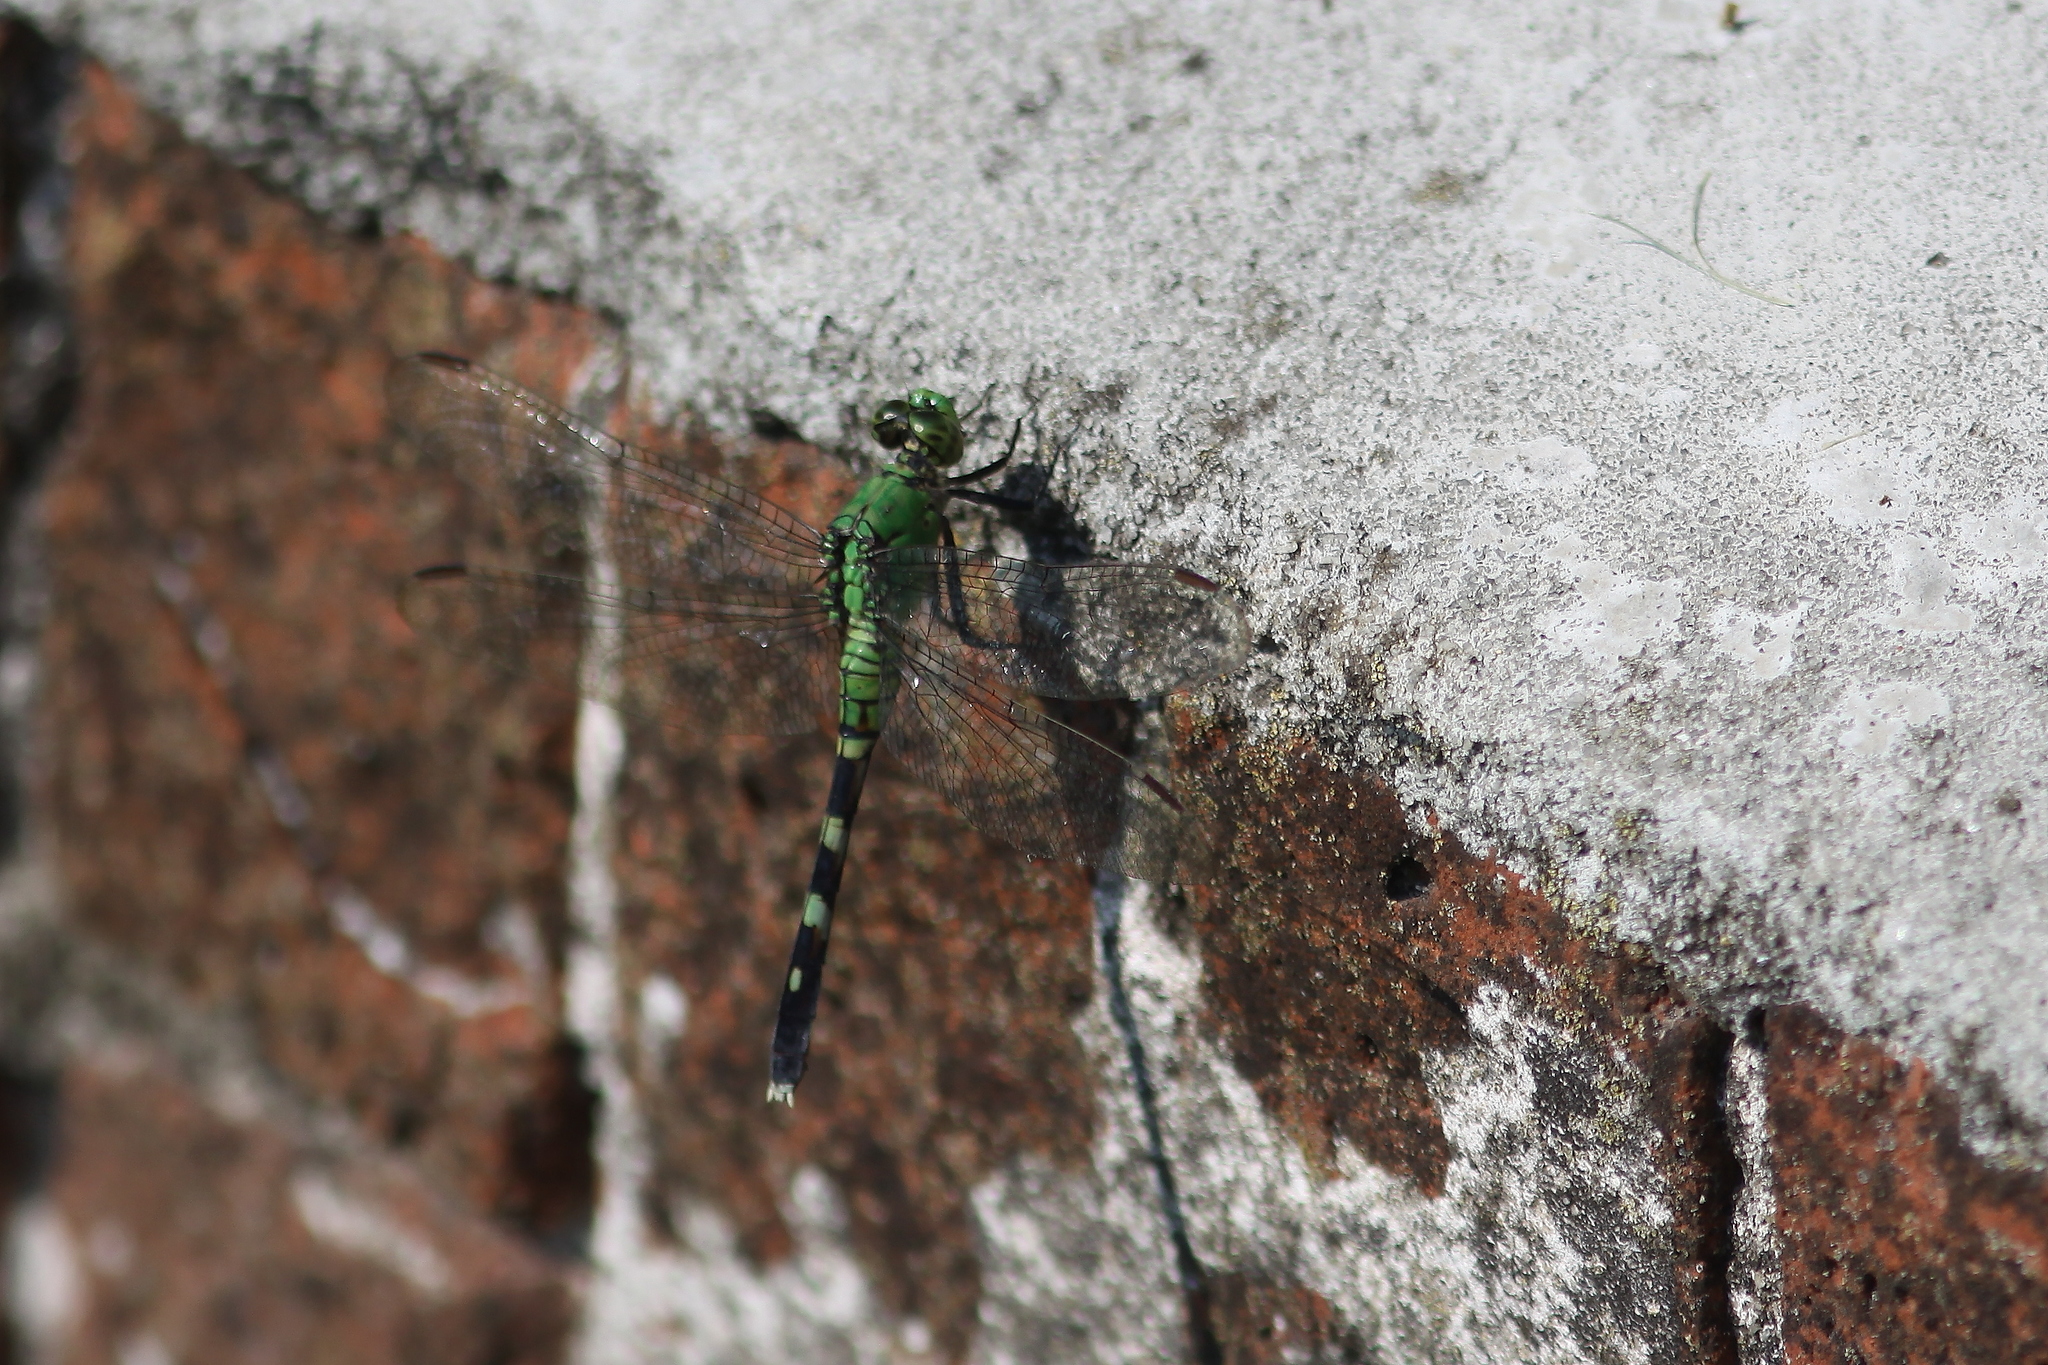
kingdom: Animalia
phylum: Arthropoda
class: Insecta
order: Odonata
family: Libellulidae
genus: Erythemis
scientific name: Erythemis simplicicollis
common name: Eastern pondhawk
